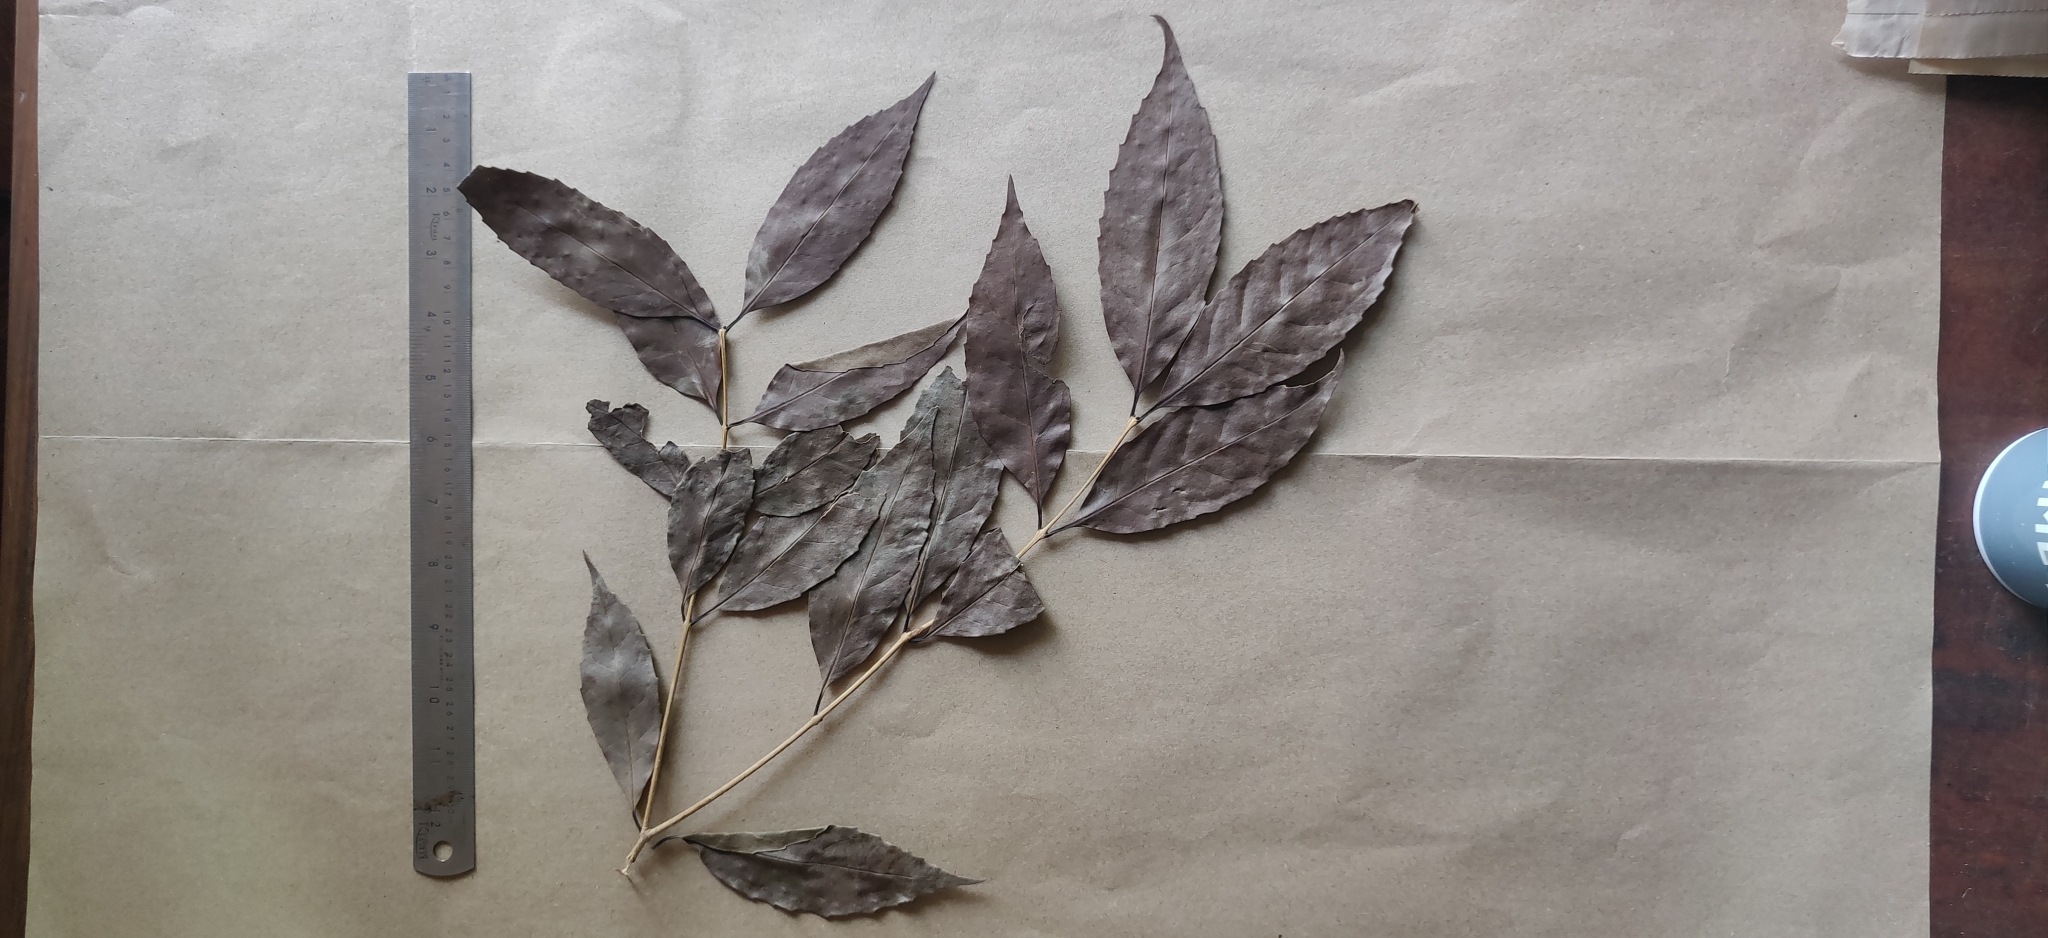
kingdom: Plantae
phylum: Tracheophyta
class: Magnoliopsida
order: Lamiales
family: Oleaceae
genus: Tetrapilus
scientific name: Tetrapilus dioicus
